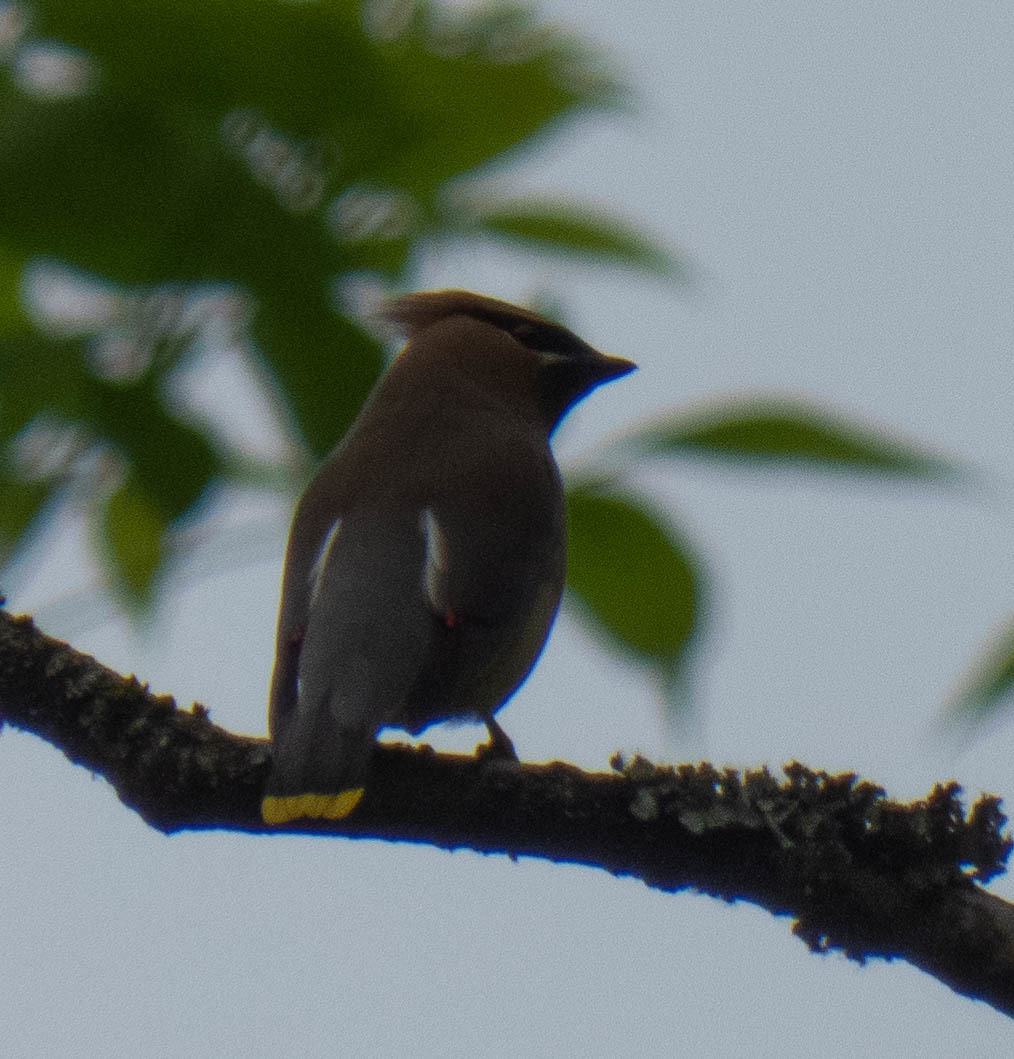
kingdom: Animalia
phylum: Chordata
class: Aves
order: Passeriformes
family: Bombycillidae
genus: Bombycilla
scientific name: Bombycilla cedrorum
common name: Cedar waxwing
